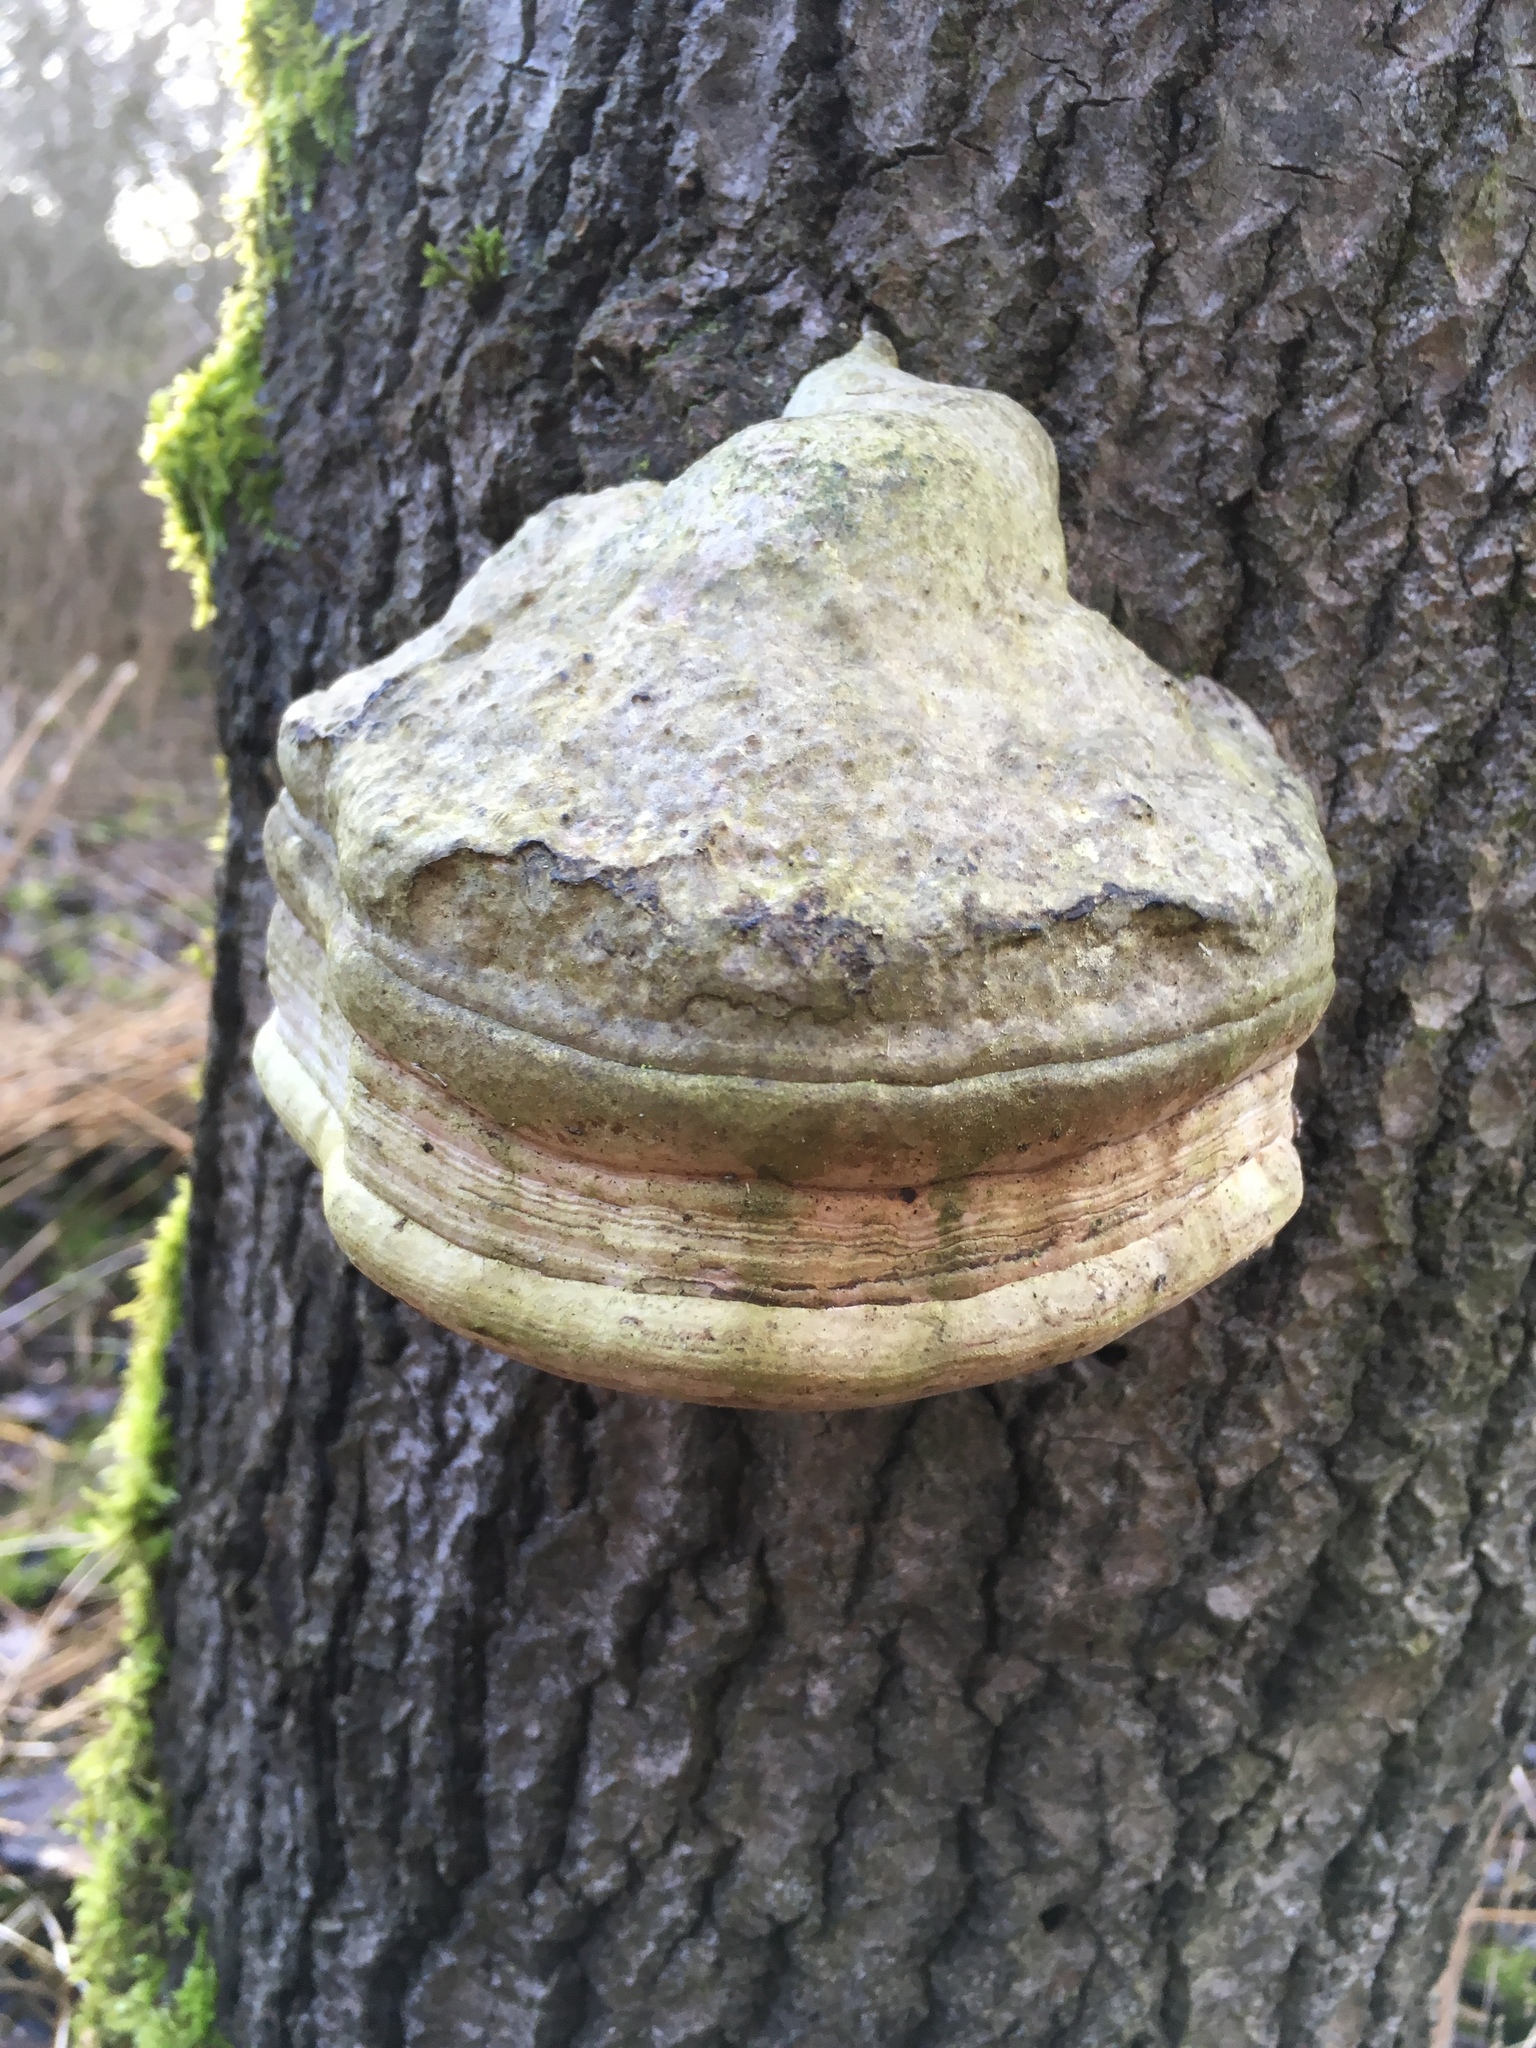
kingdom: Fungi
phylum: Basidiomycota
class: Agaricomycetes
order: Polyporales
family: Polyporaceae
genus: Fomes
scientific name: Fomes fomentarius
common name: Hoof fungus
